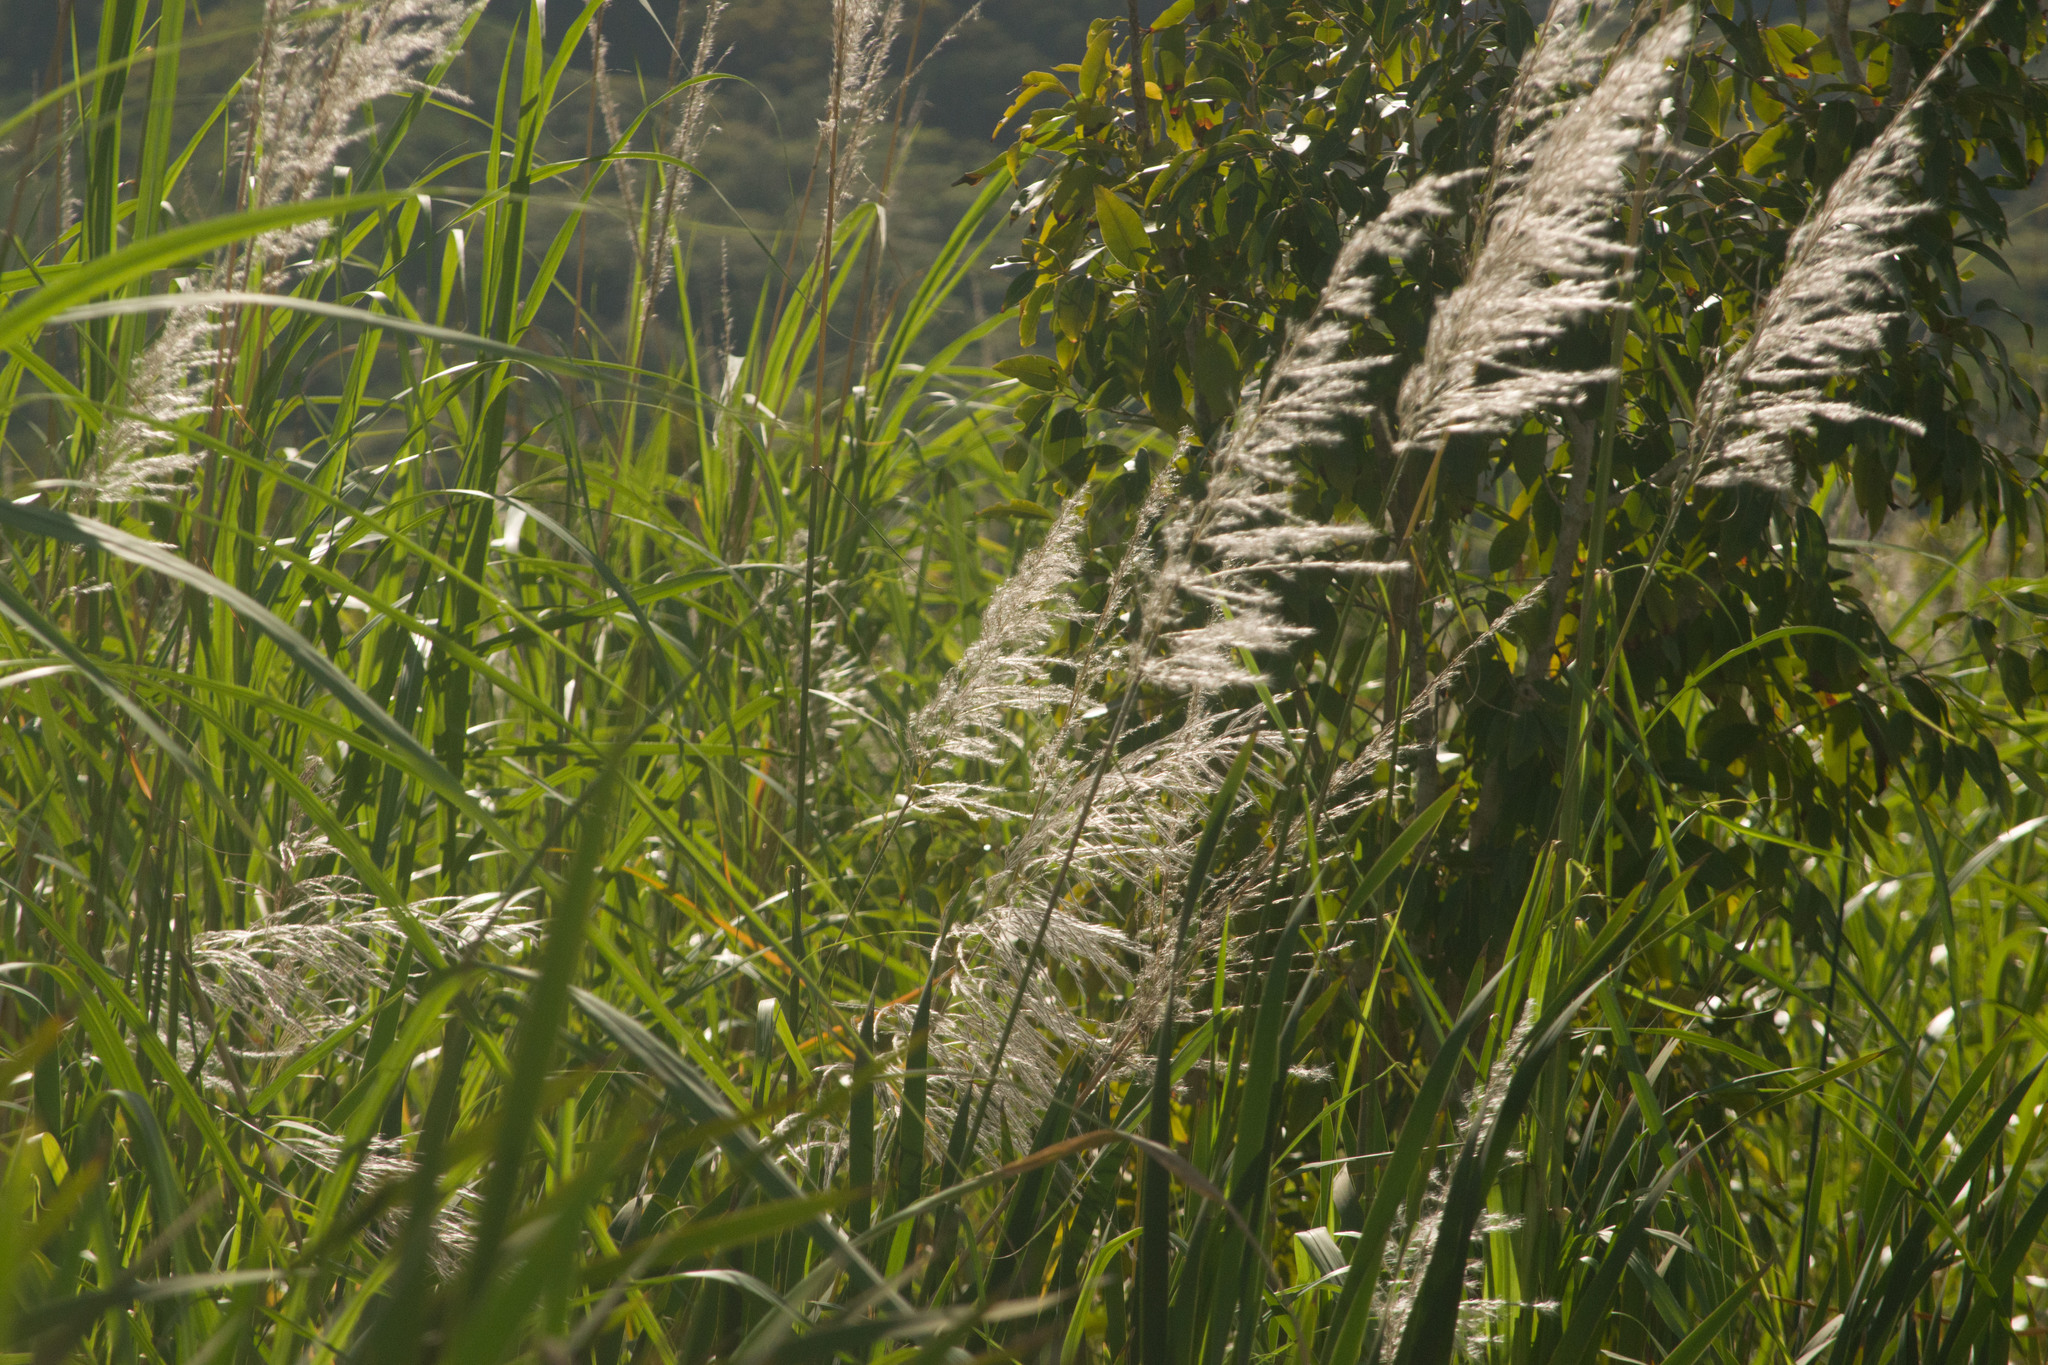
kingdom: Plantae
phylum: Tracheophyta
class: Liliopsida
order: Poales
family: Poaceae
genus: Saccharum
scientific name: Saccharum spontaneum
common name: Wild sugarcane
